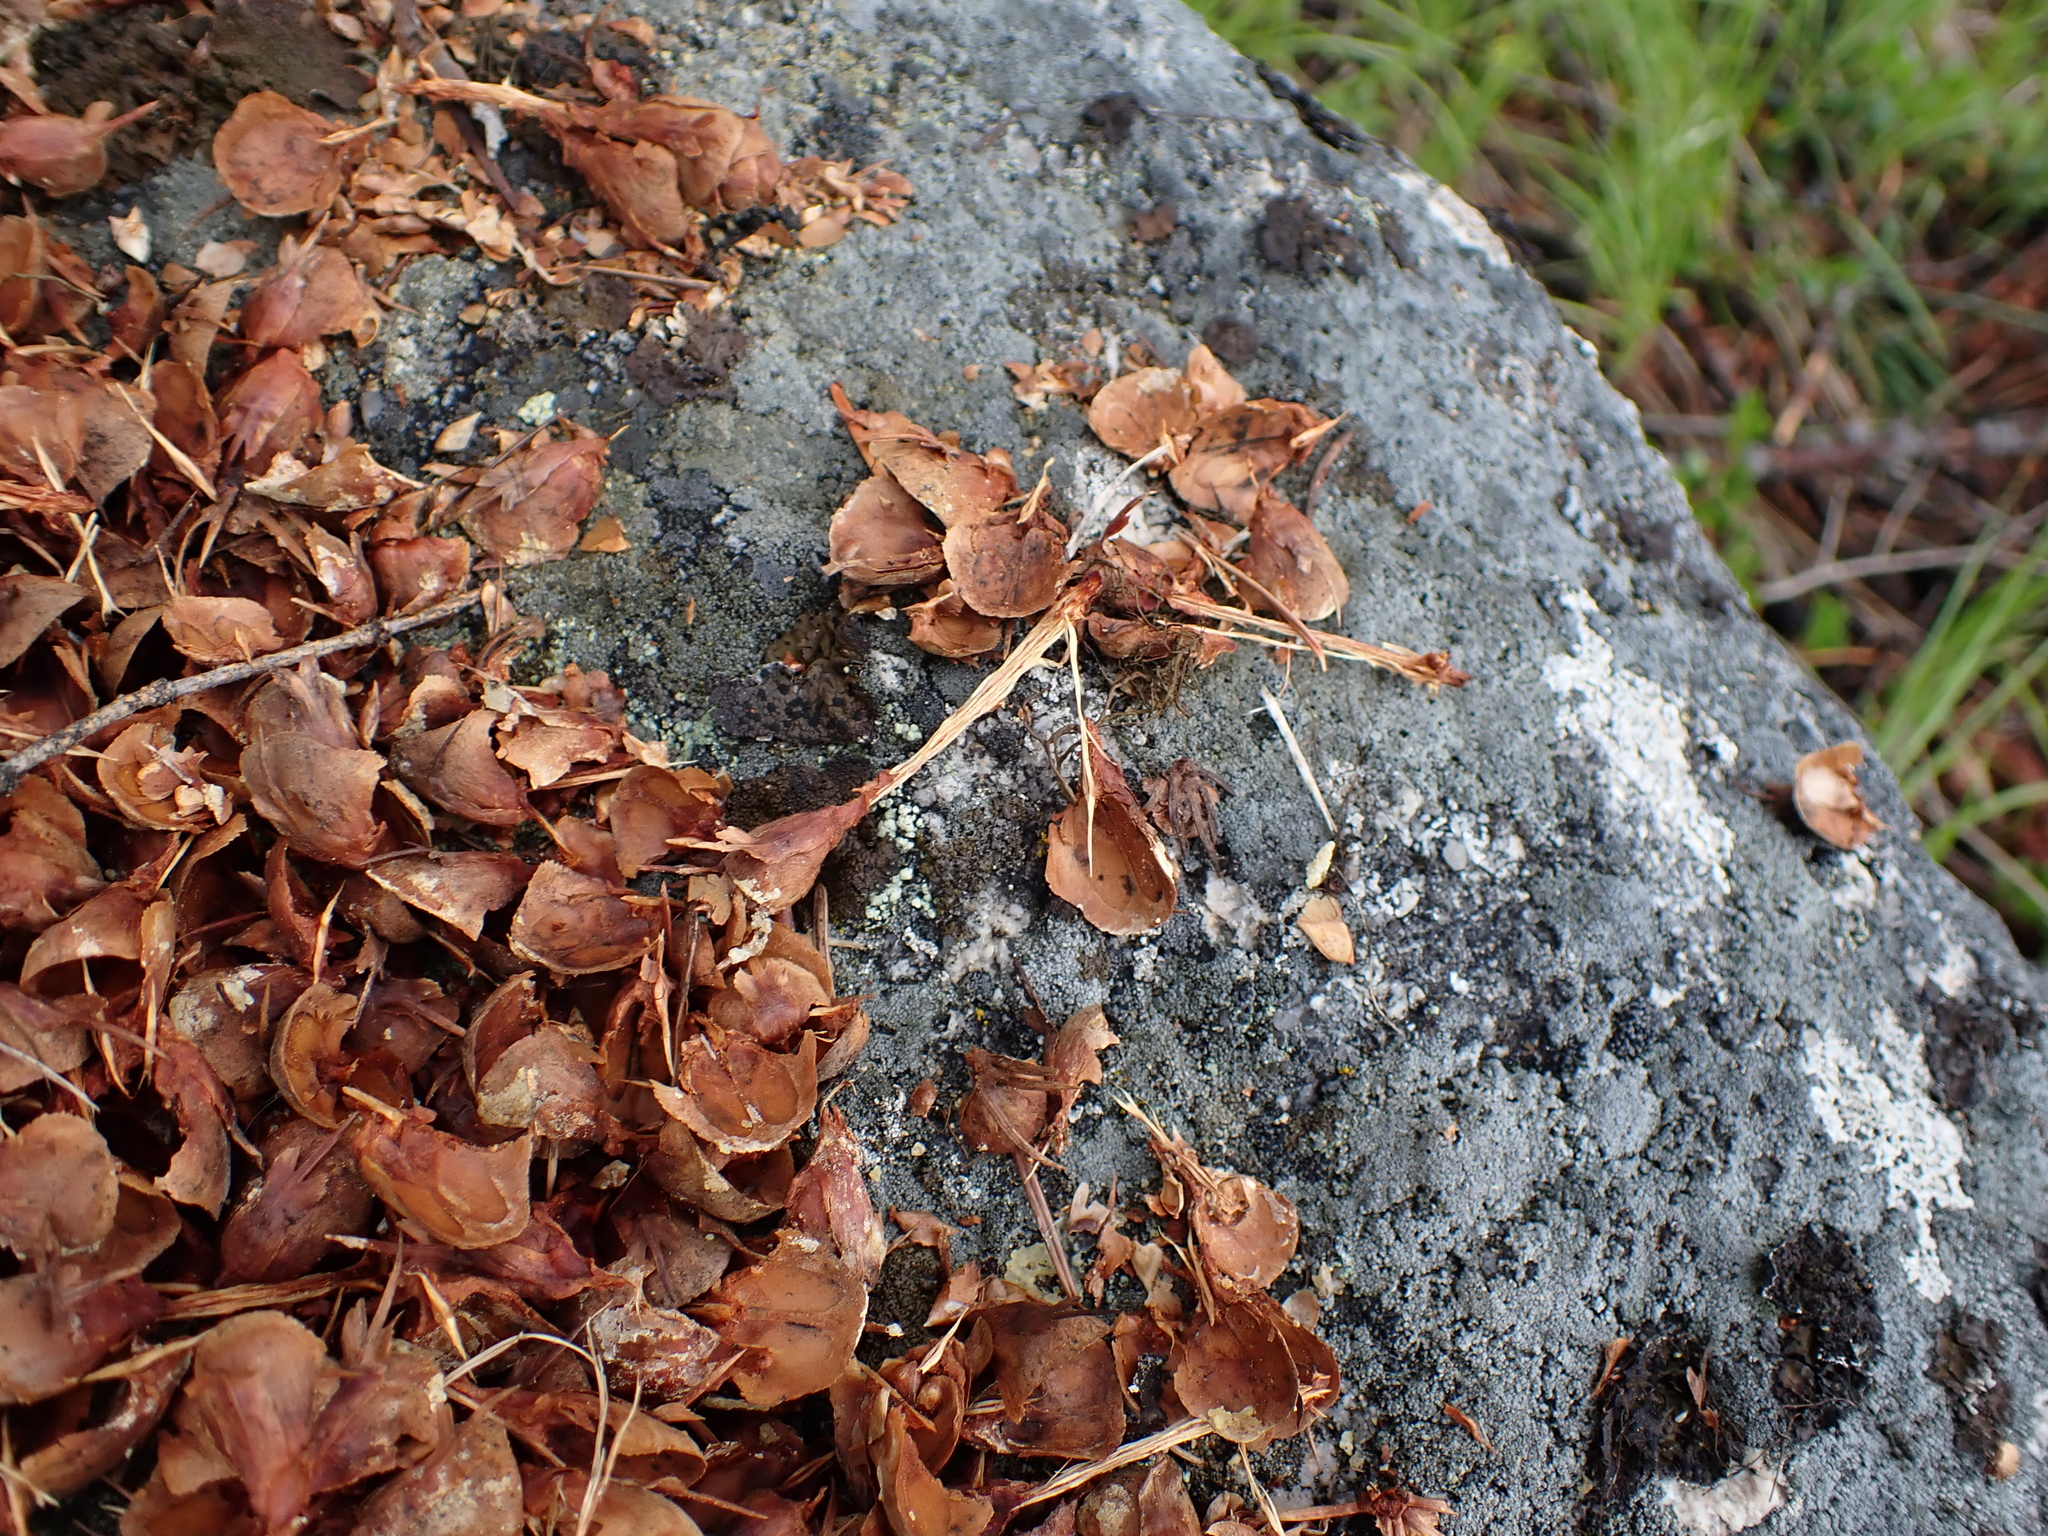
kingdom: Animalia
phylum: Chordata
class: Mammalia
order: Rodentia
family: Sciuridae
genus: Tamiasciurus
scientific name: Tamiasciurus hudsonicus
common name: Red squirrel
